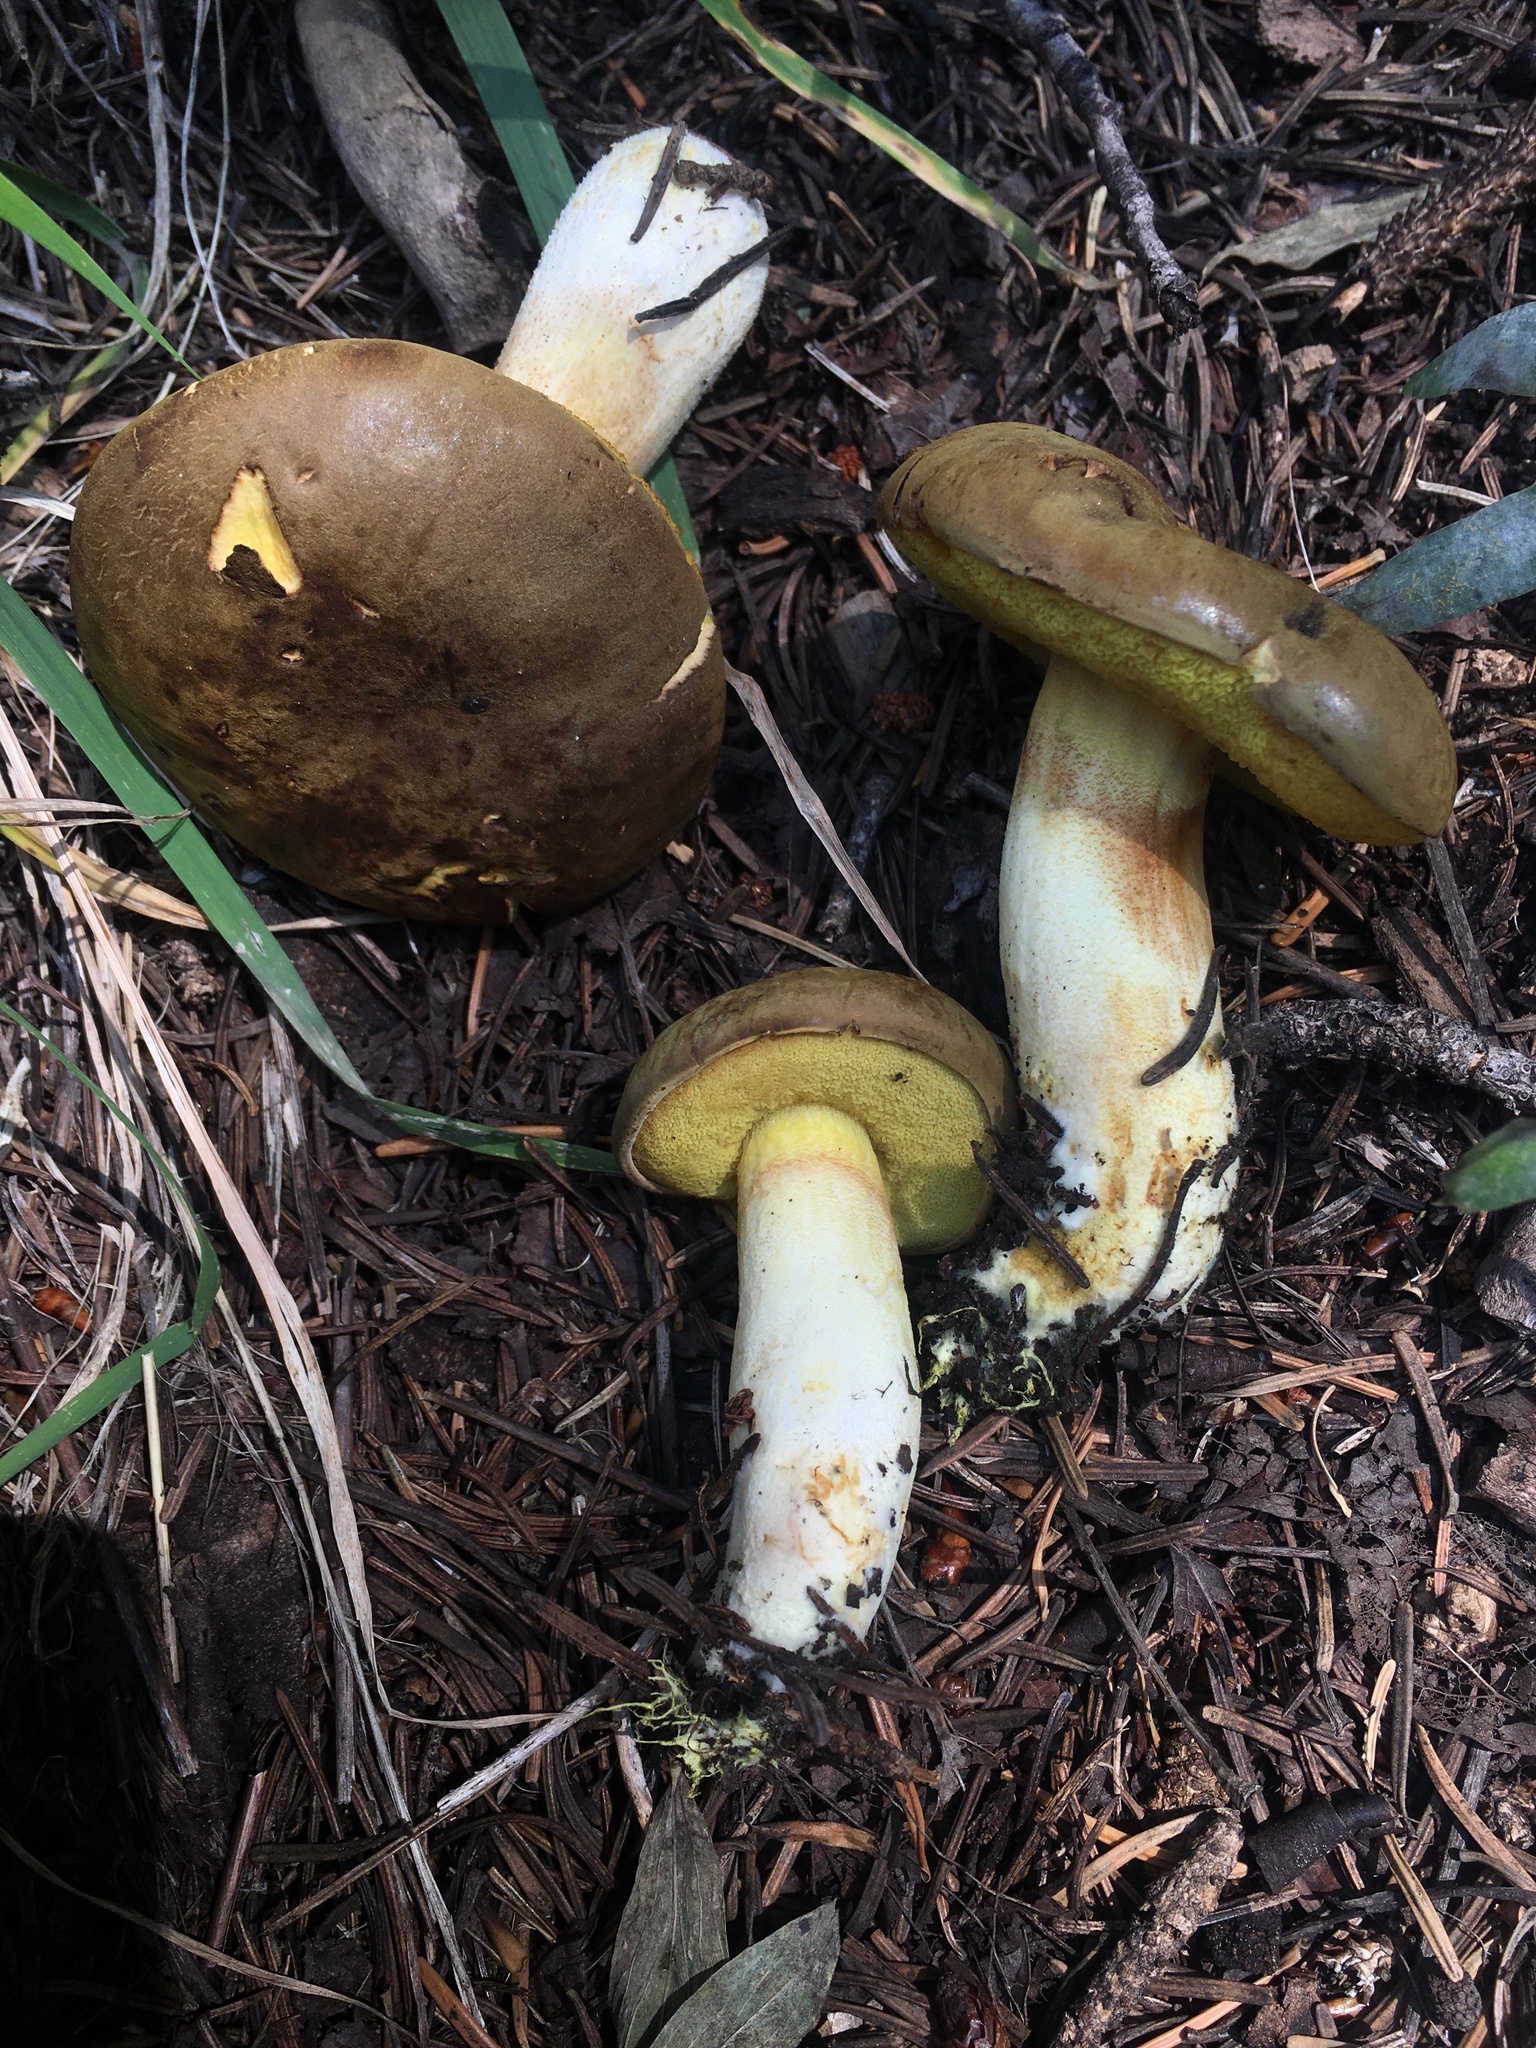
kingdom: Fungi
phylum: Basidiomycota
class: Agaricomycetes
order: Boletales
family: Boletaceae
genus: Xerocomus
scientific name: Xerocomus ferrugineus
